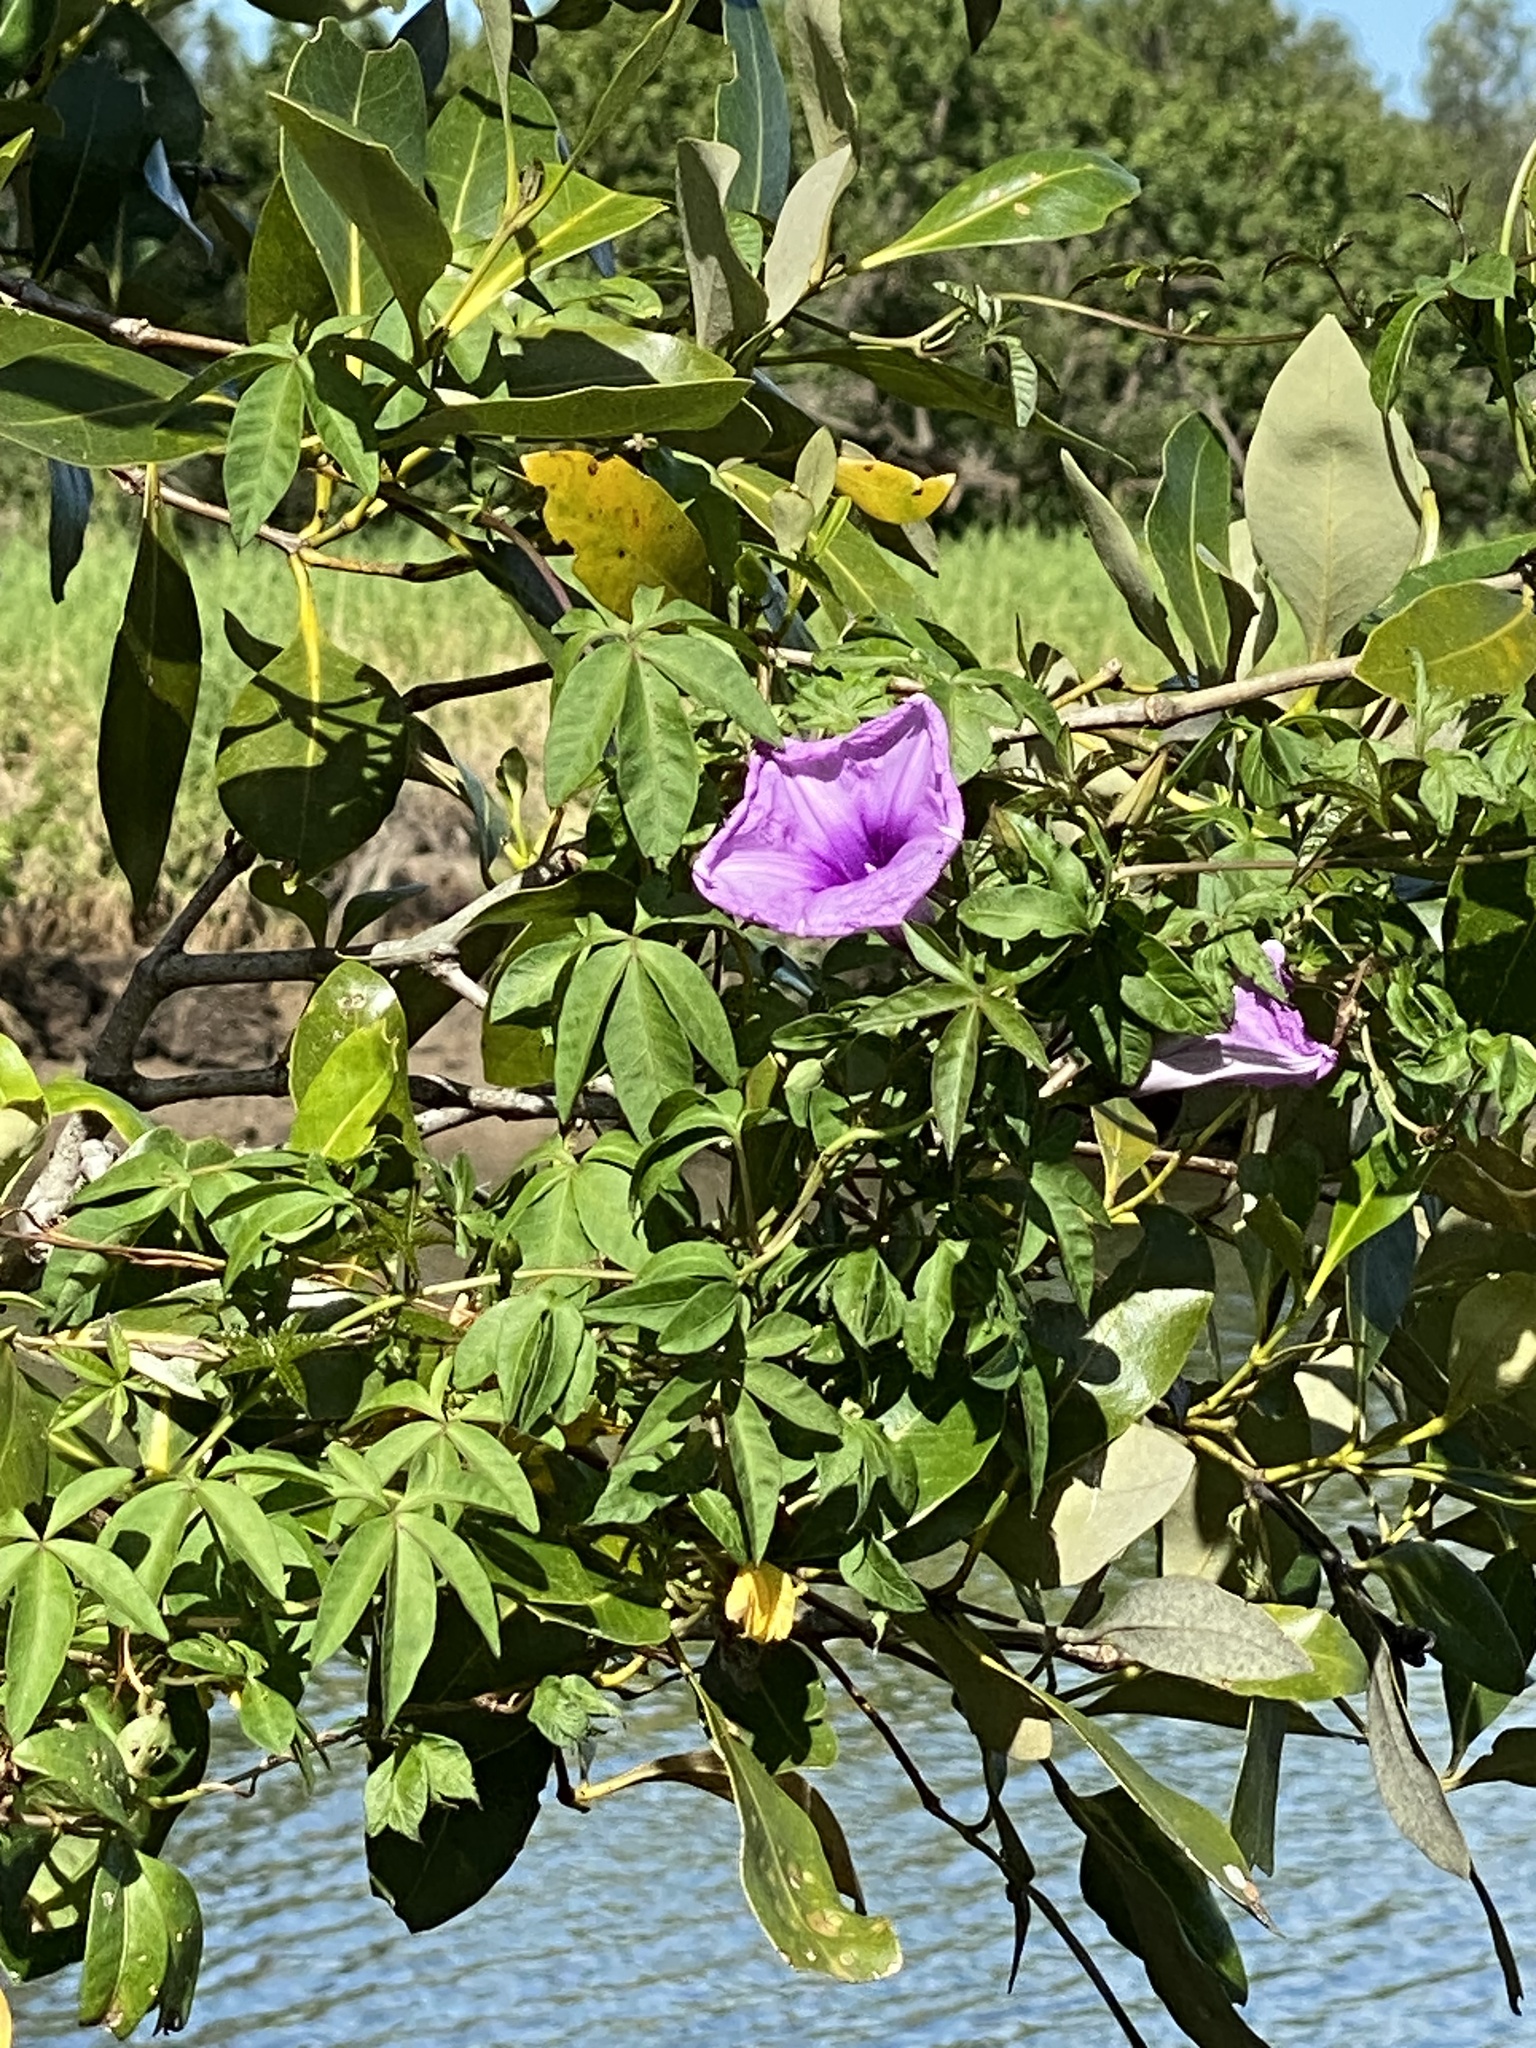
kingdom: Plantae
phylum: Tracheophyta
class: Magnoliopsida
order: Solanales
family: Convolvulaceae
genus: Ipomoea
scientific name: Ipomoea cairica
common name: Mile a minute vine
